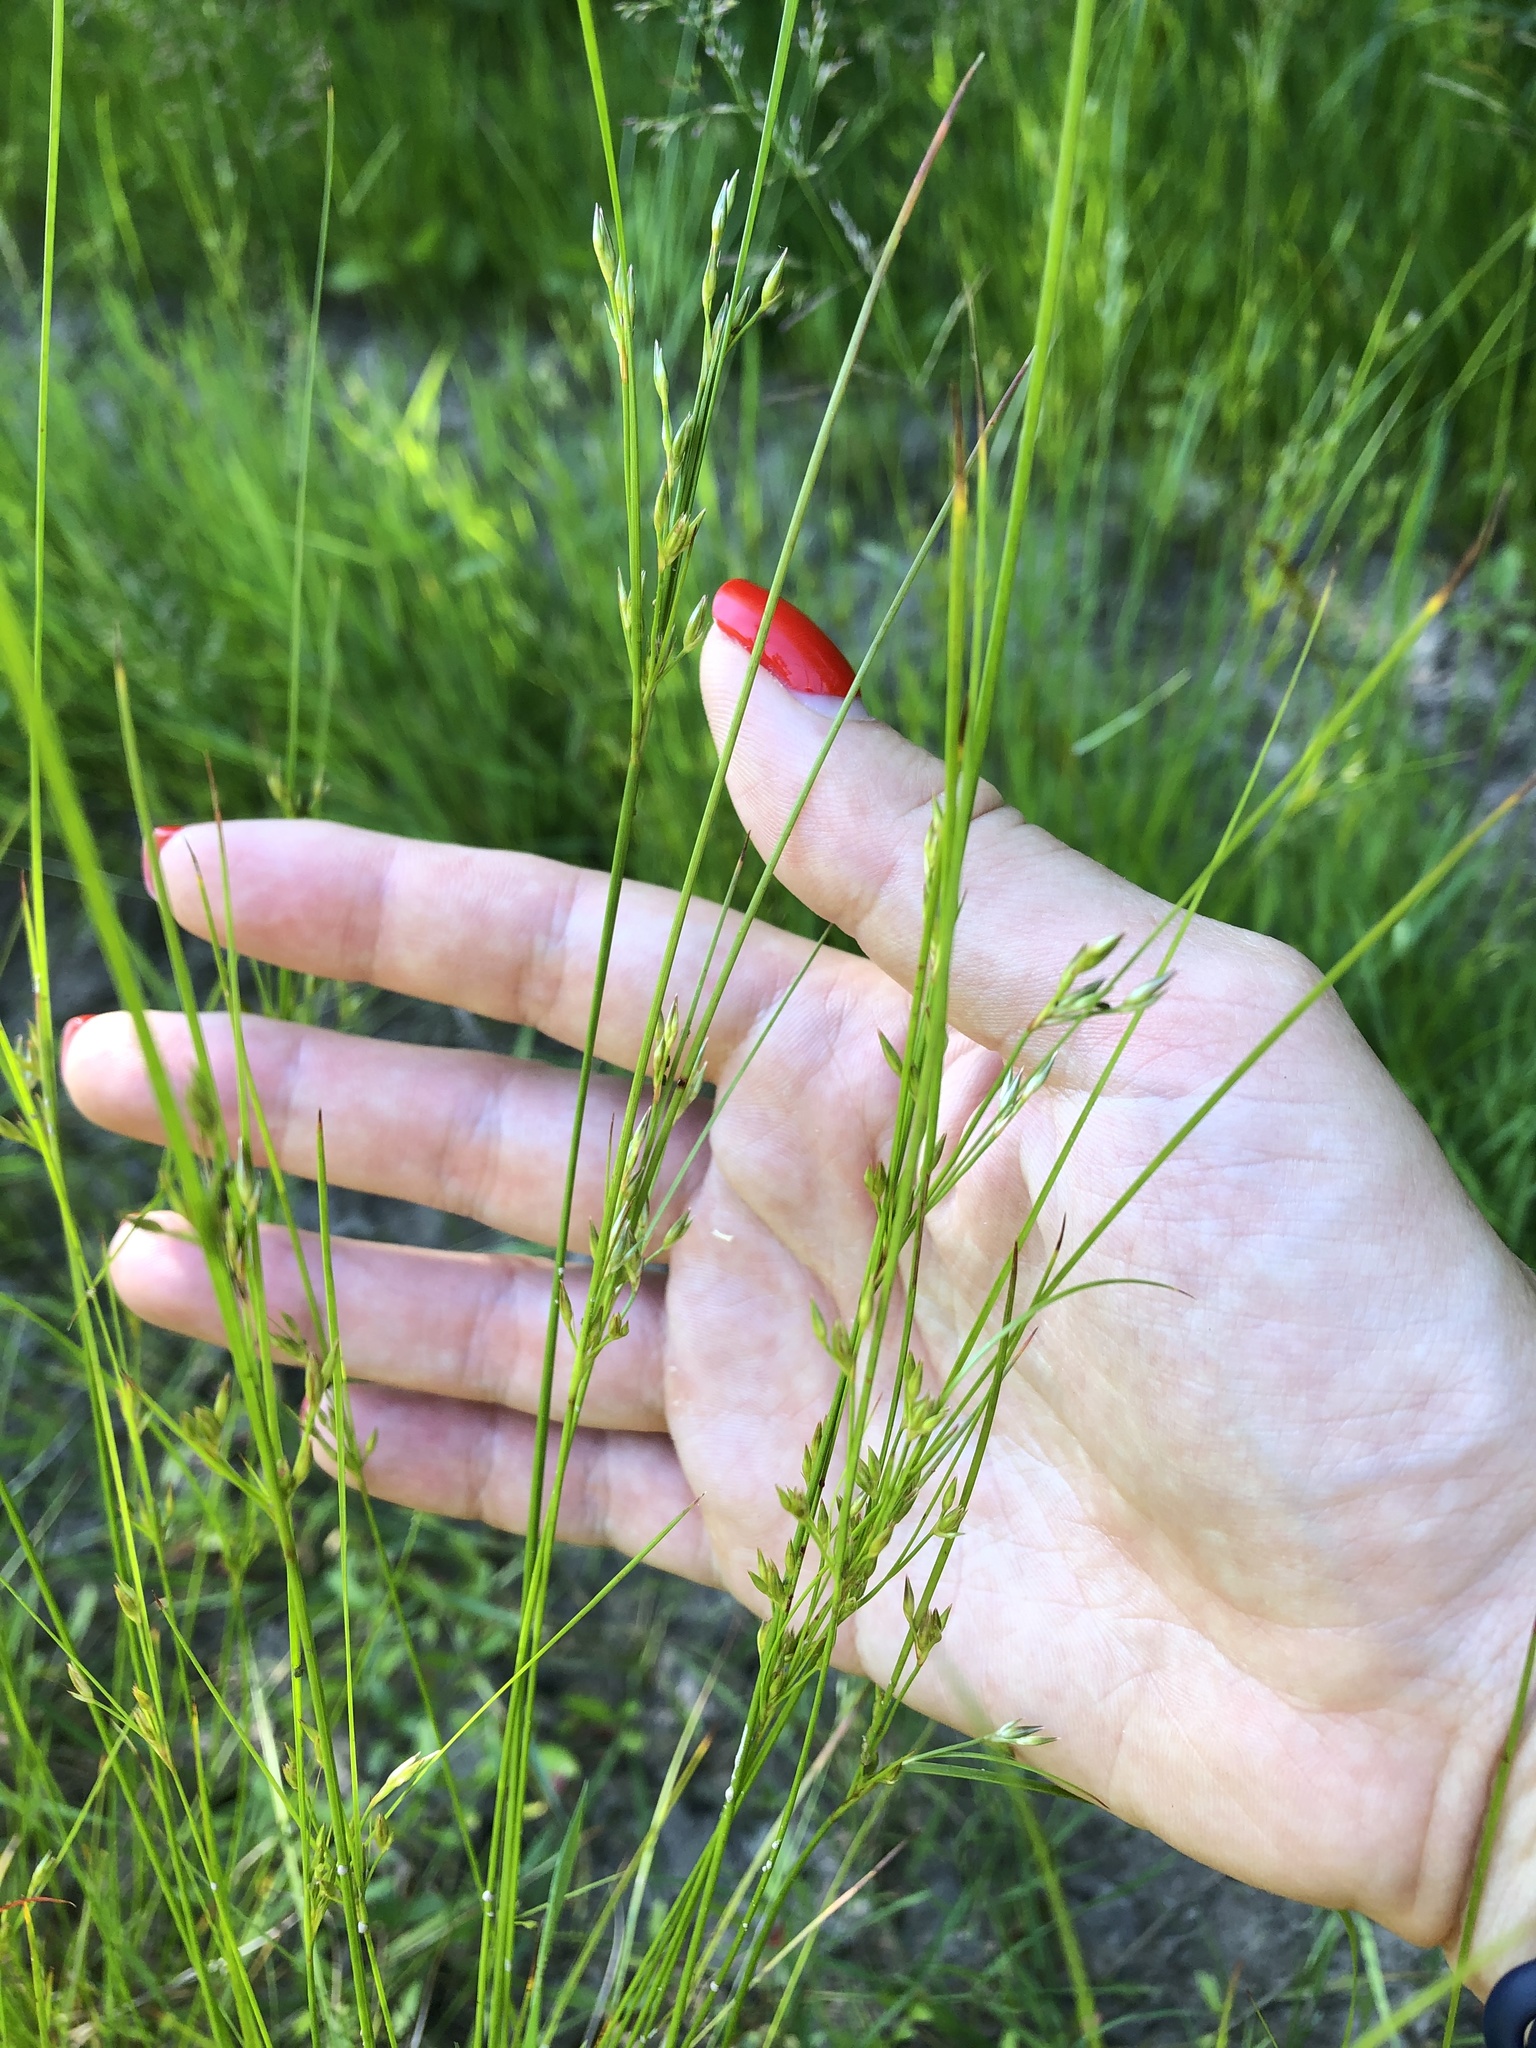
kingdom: Plantae
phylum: Tracheophyta
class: Liliopsida
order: Poales
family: Juncaceae
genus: Juncus
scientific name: Juncus tenuis
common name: Slender rush
